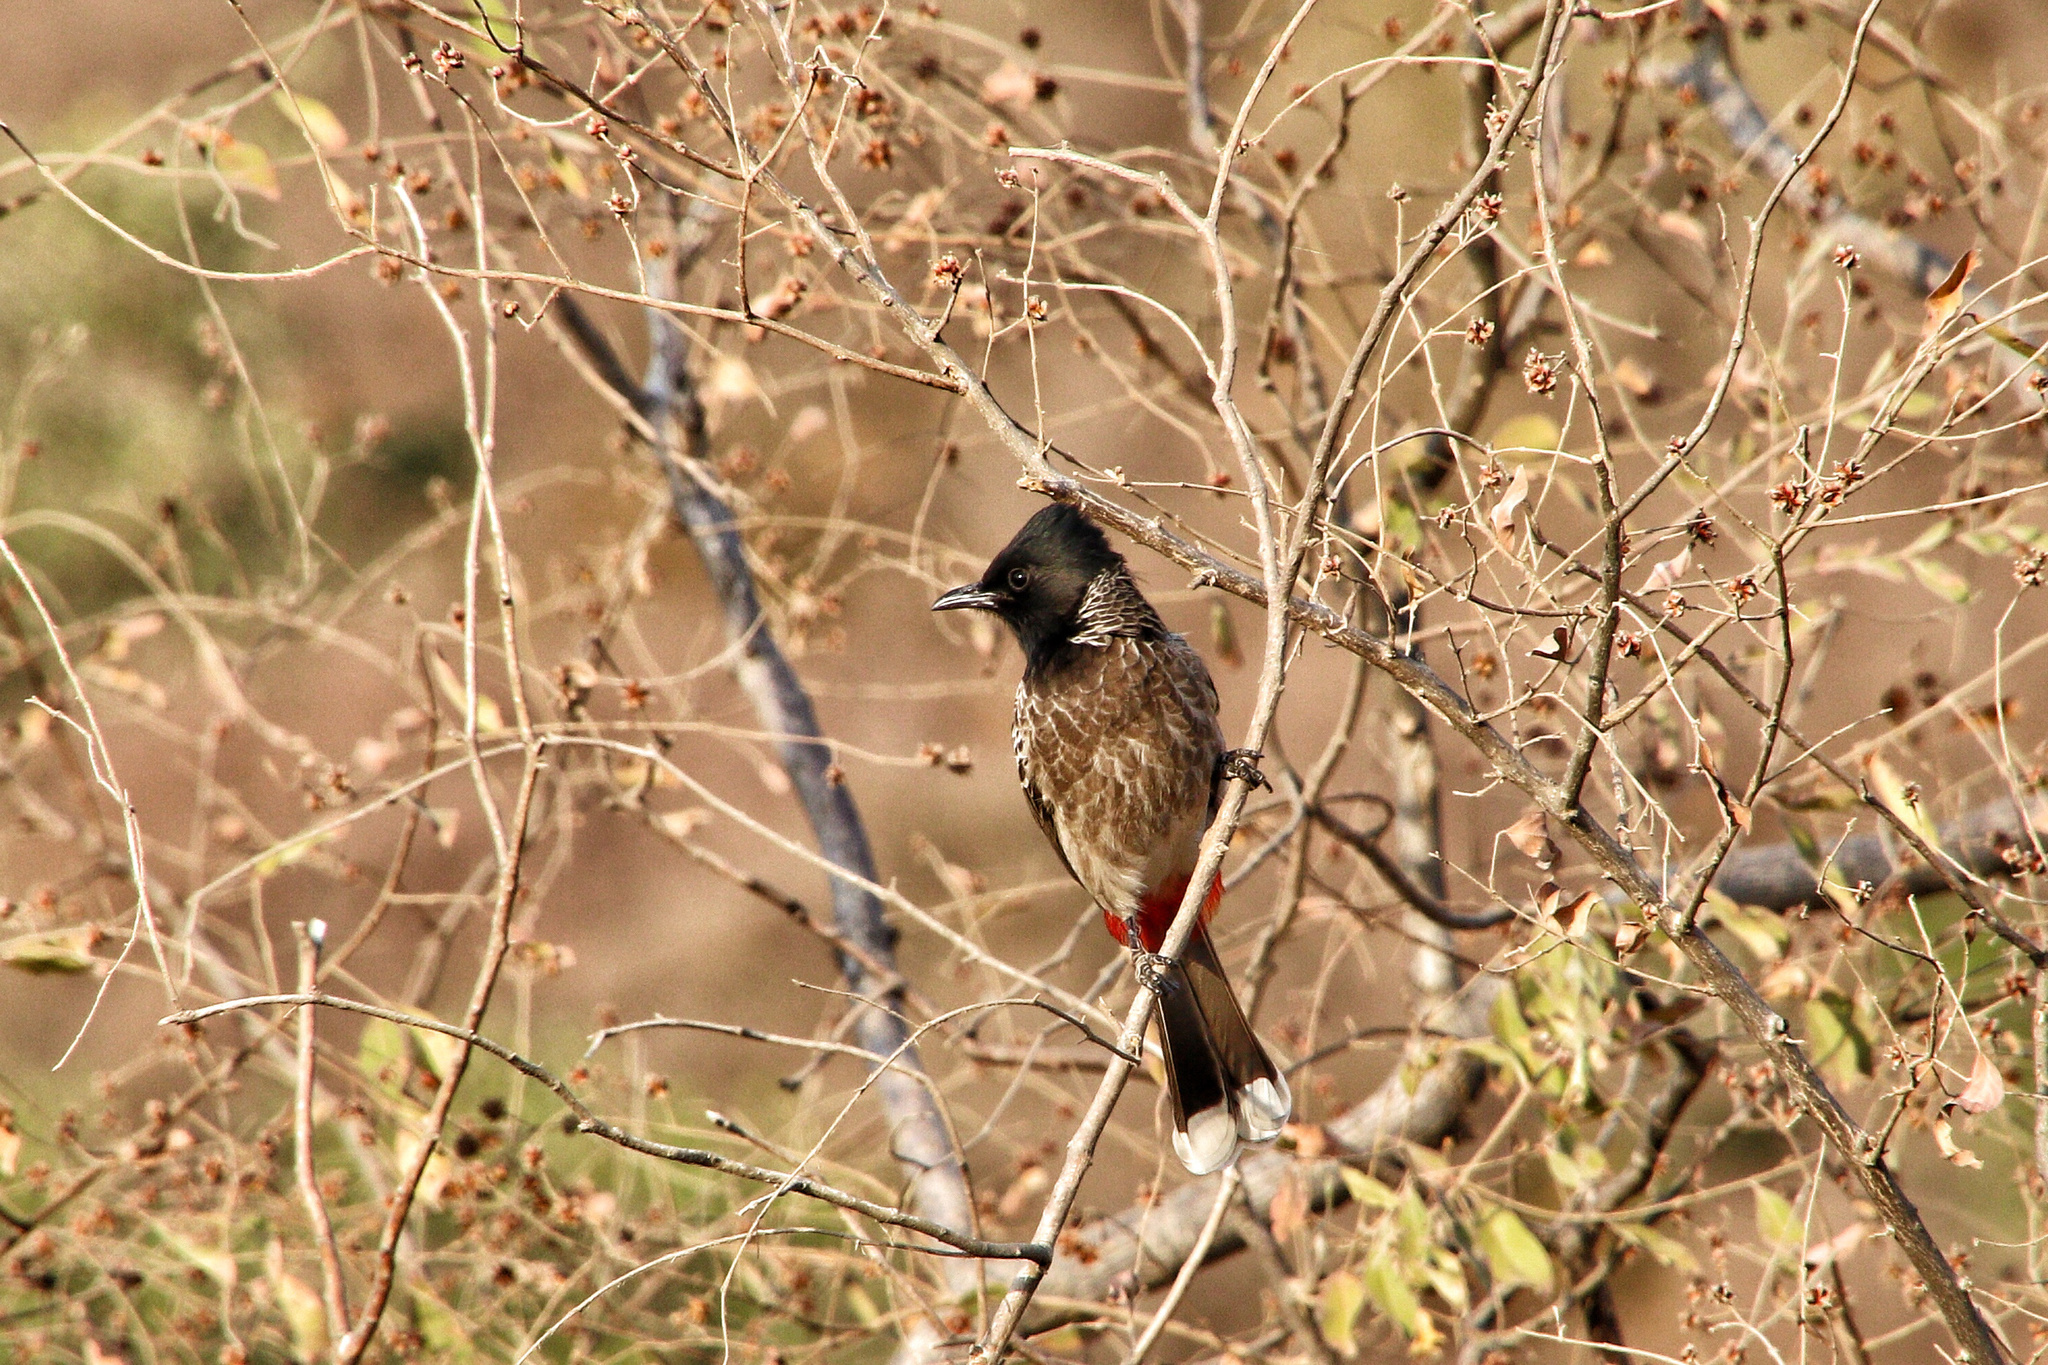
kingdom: Animalia
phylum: Chordata
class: Aves
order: Passeriformes
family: Pycnonotidae
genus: Pycnonotus
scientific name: Pycnonotus cafer
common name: Red-vented bulbul
